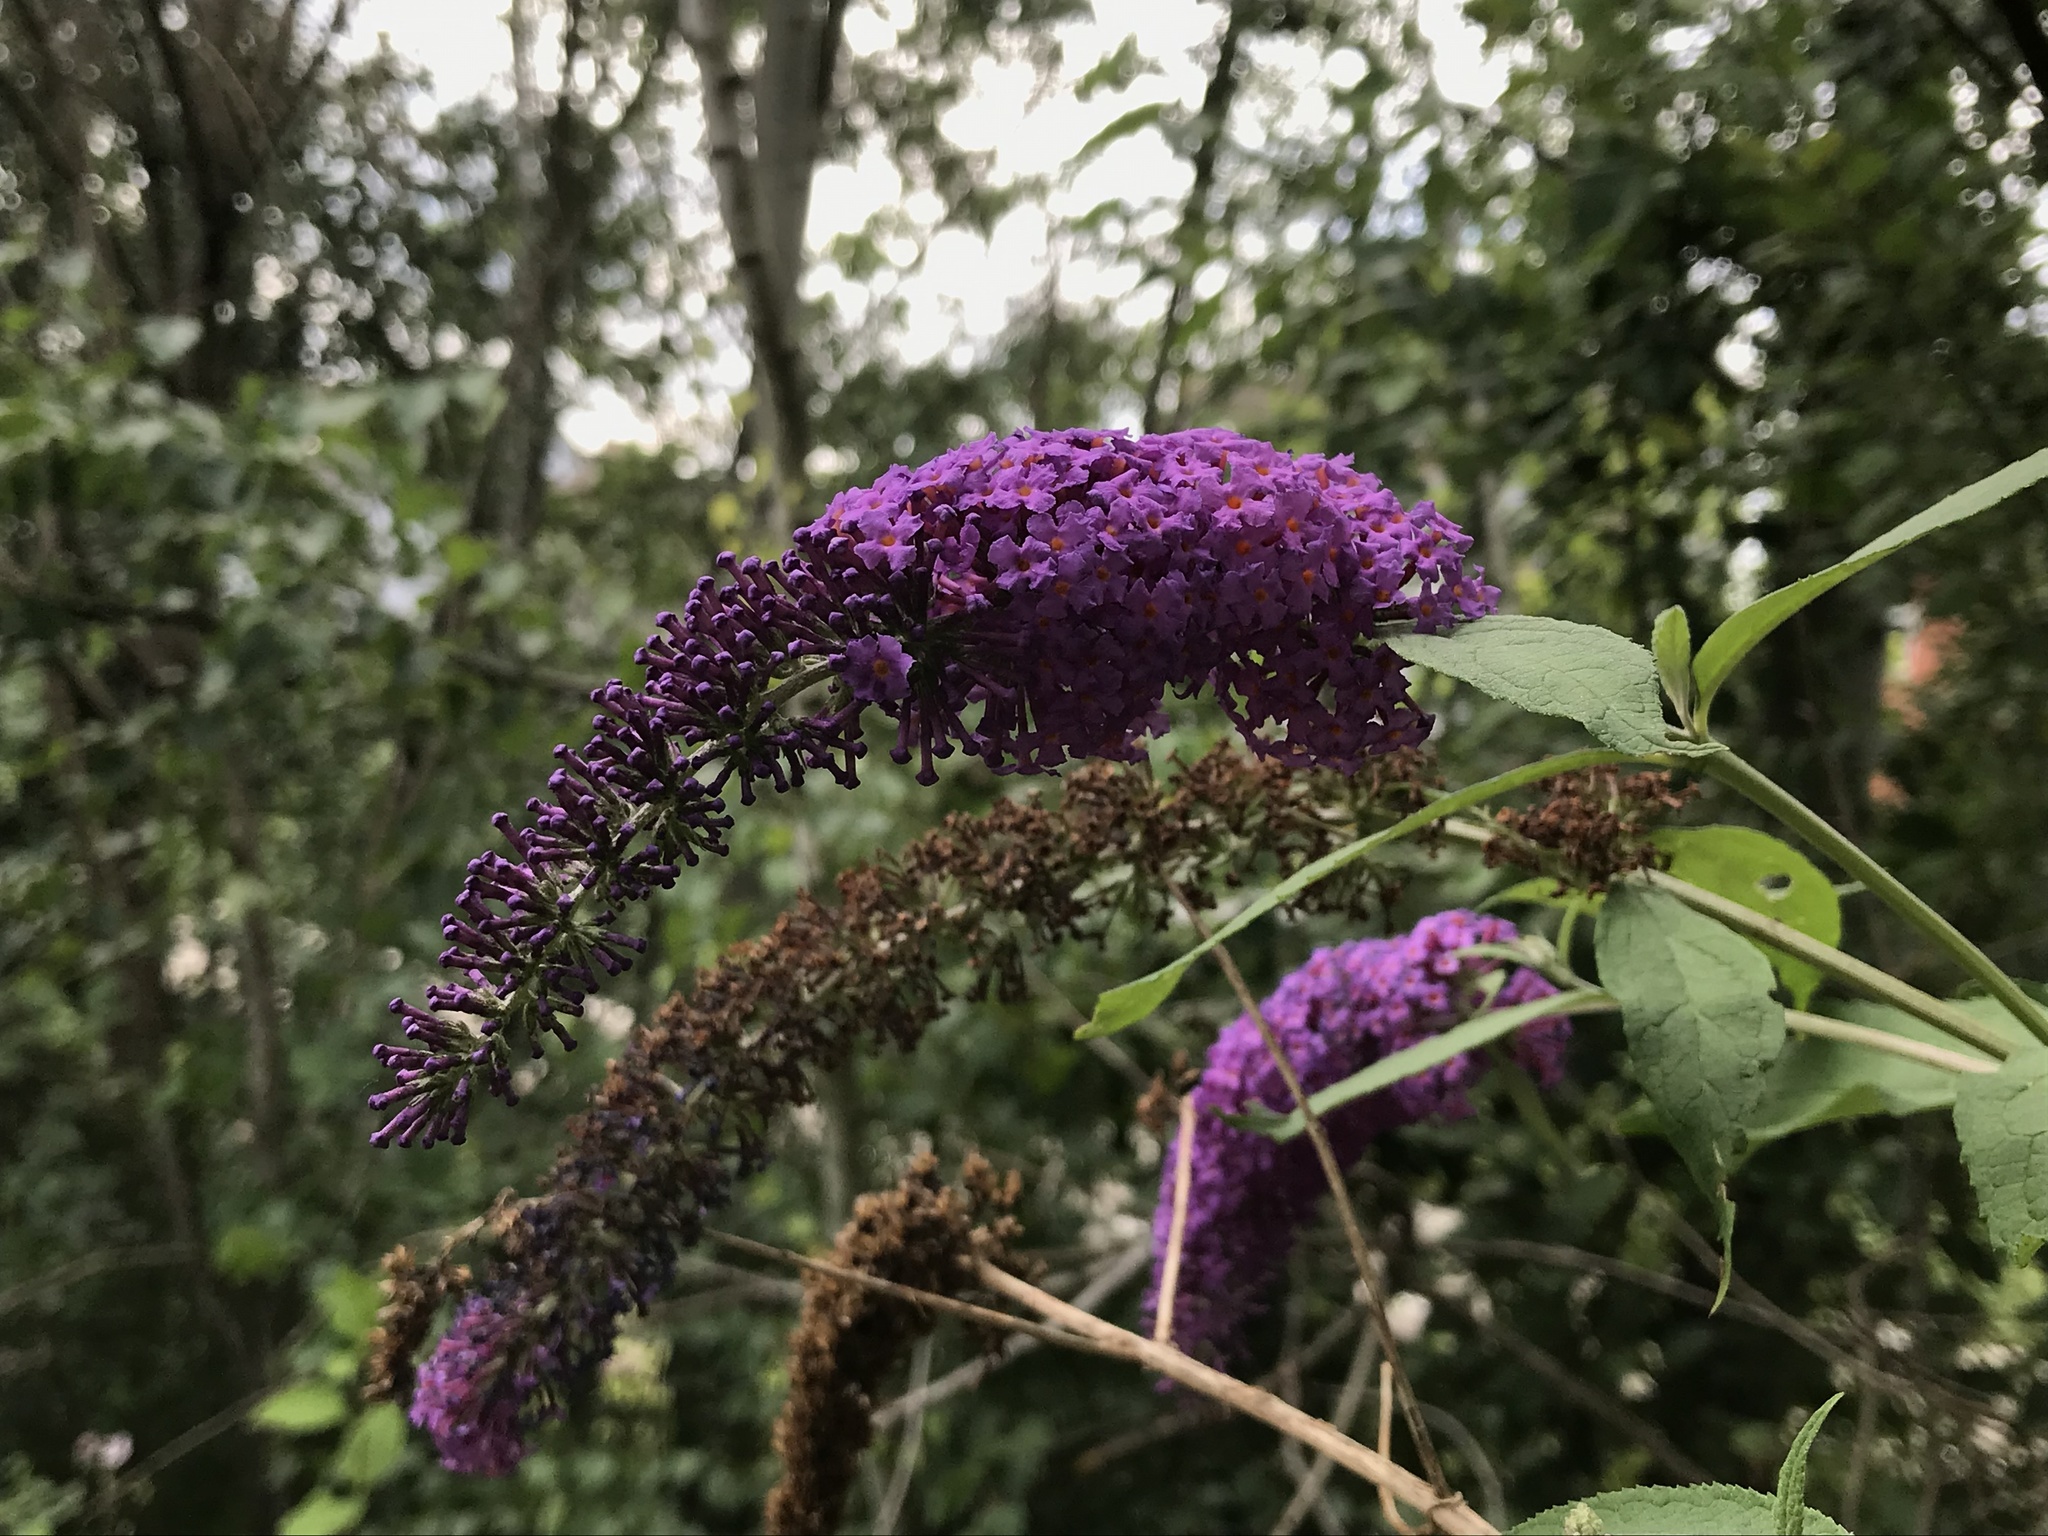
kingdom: Plantae
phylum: Tracheophyta
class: Magnoliopsida
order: Lamiales
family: Scrophulariaceae
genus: Buddleja
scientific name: Buddleja davidii
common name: Butterfly-bush
